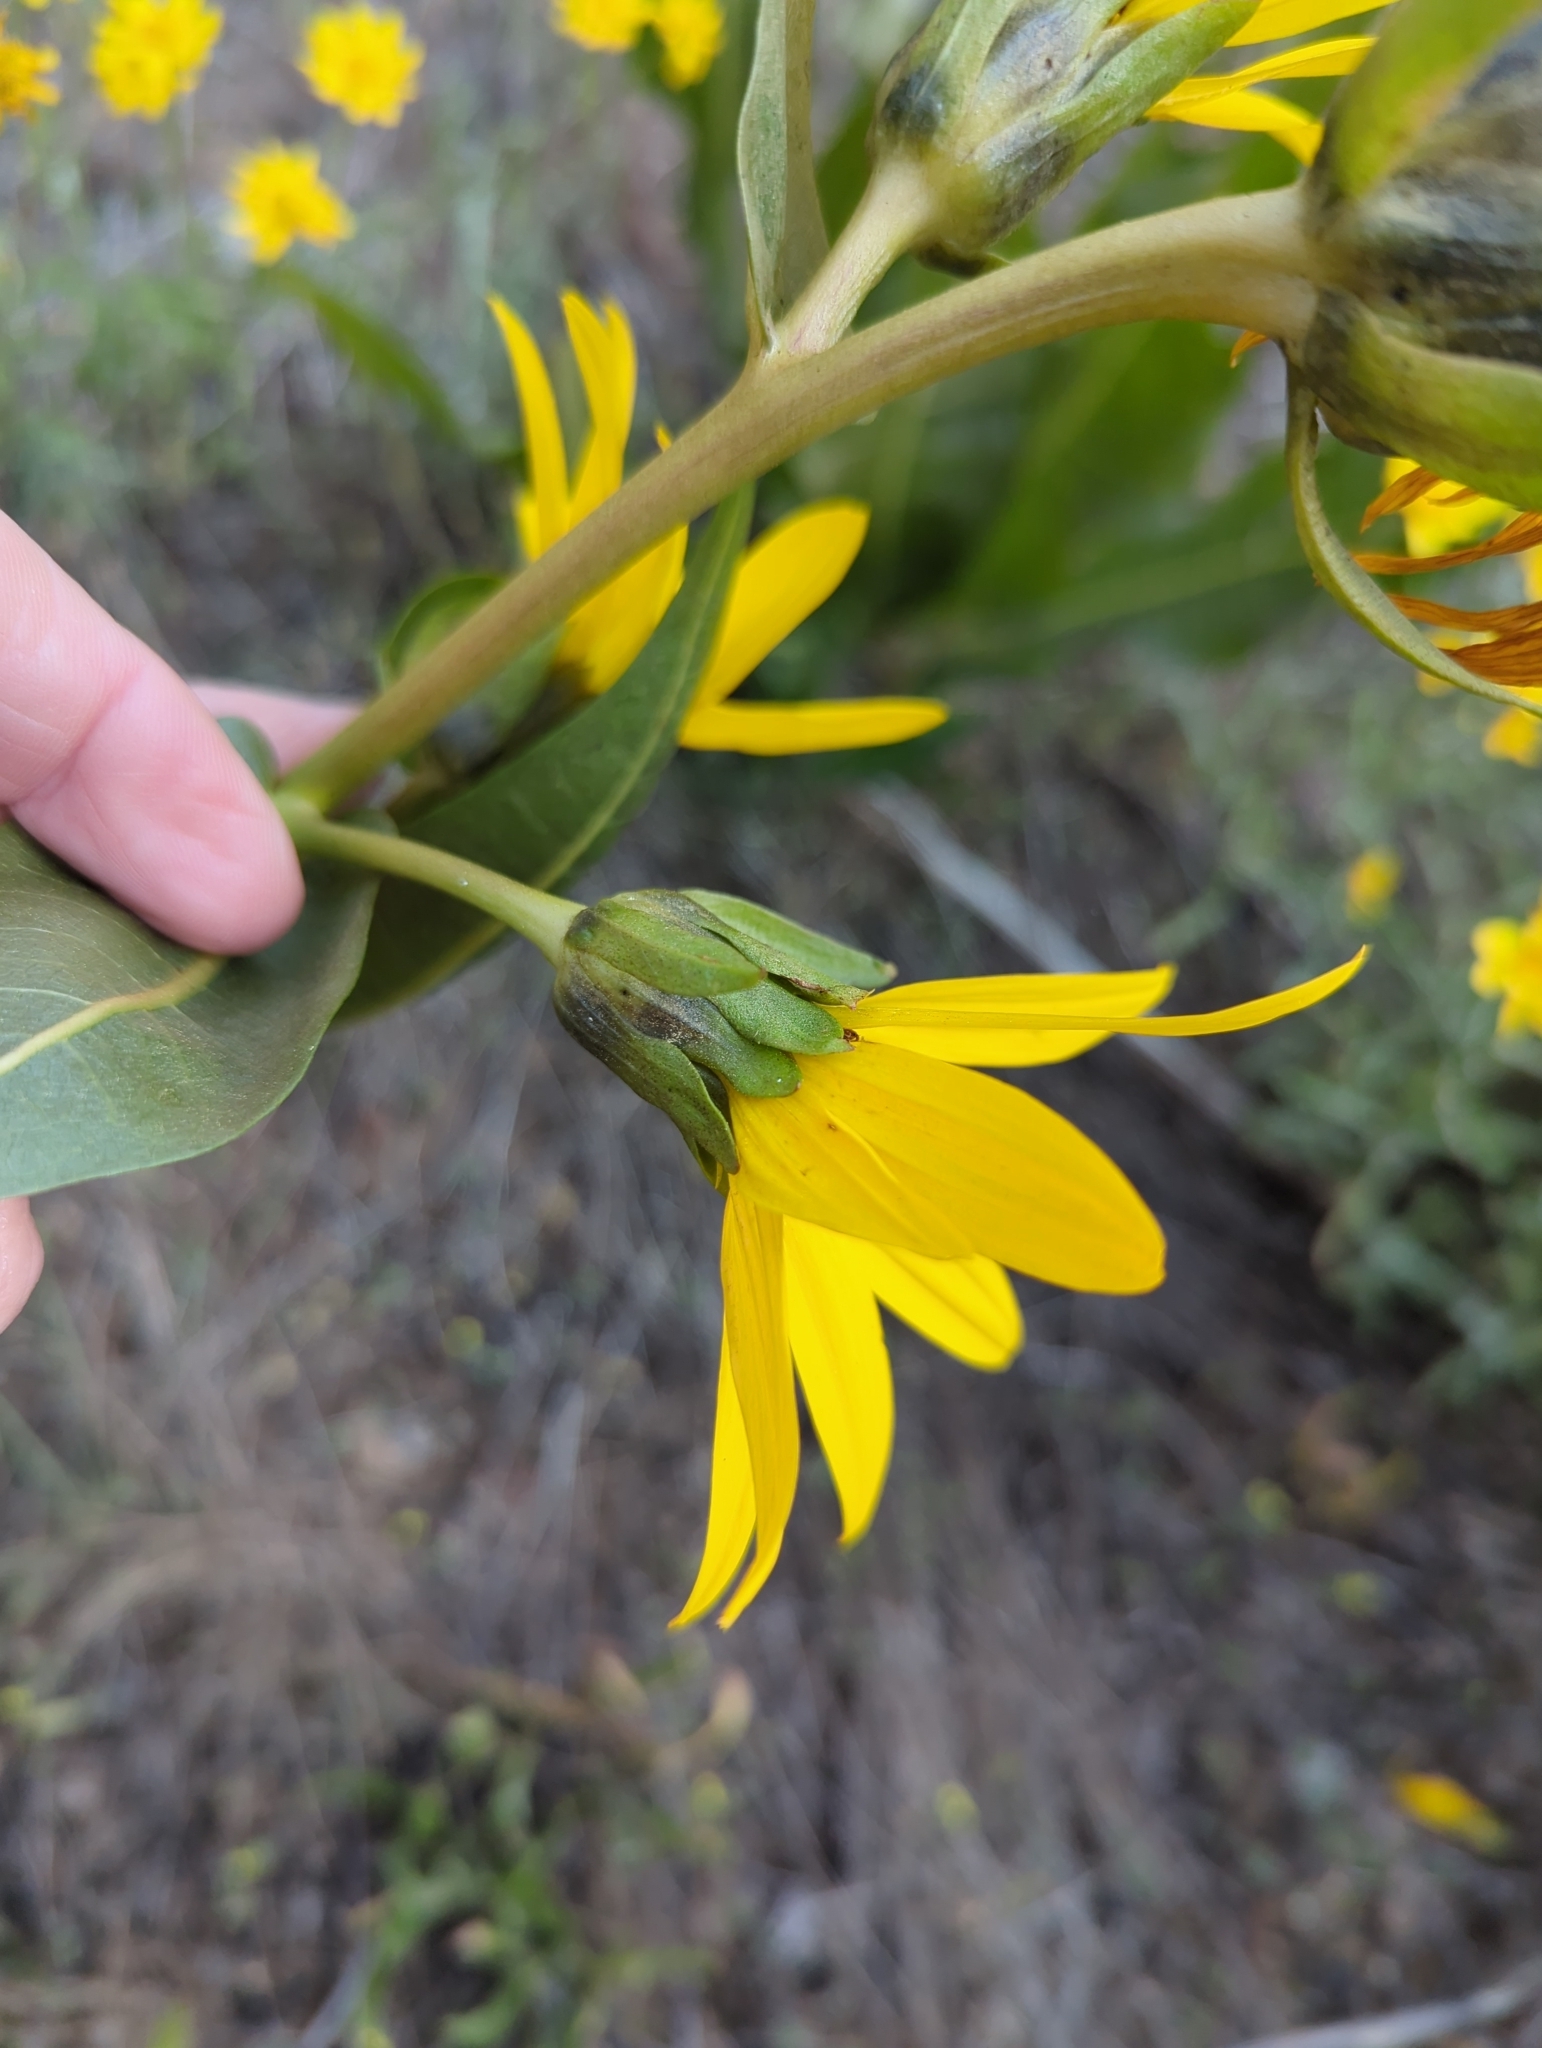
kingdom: Plantae
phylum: Tracheophyta
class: Magnoliopsida
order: Asterales
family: Asteraceae
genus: Wyethia
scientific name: Wyethia amplexicaulis
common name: Northern mule's-ears
